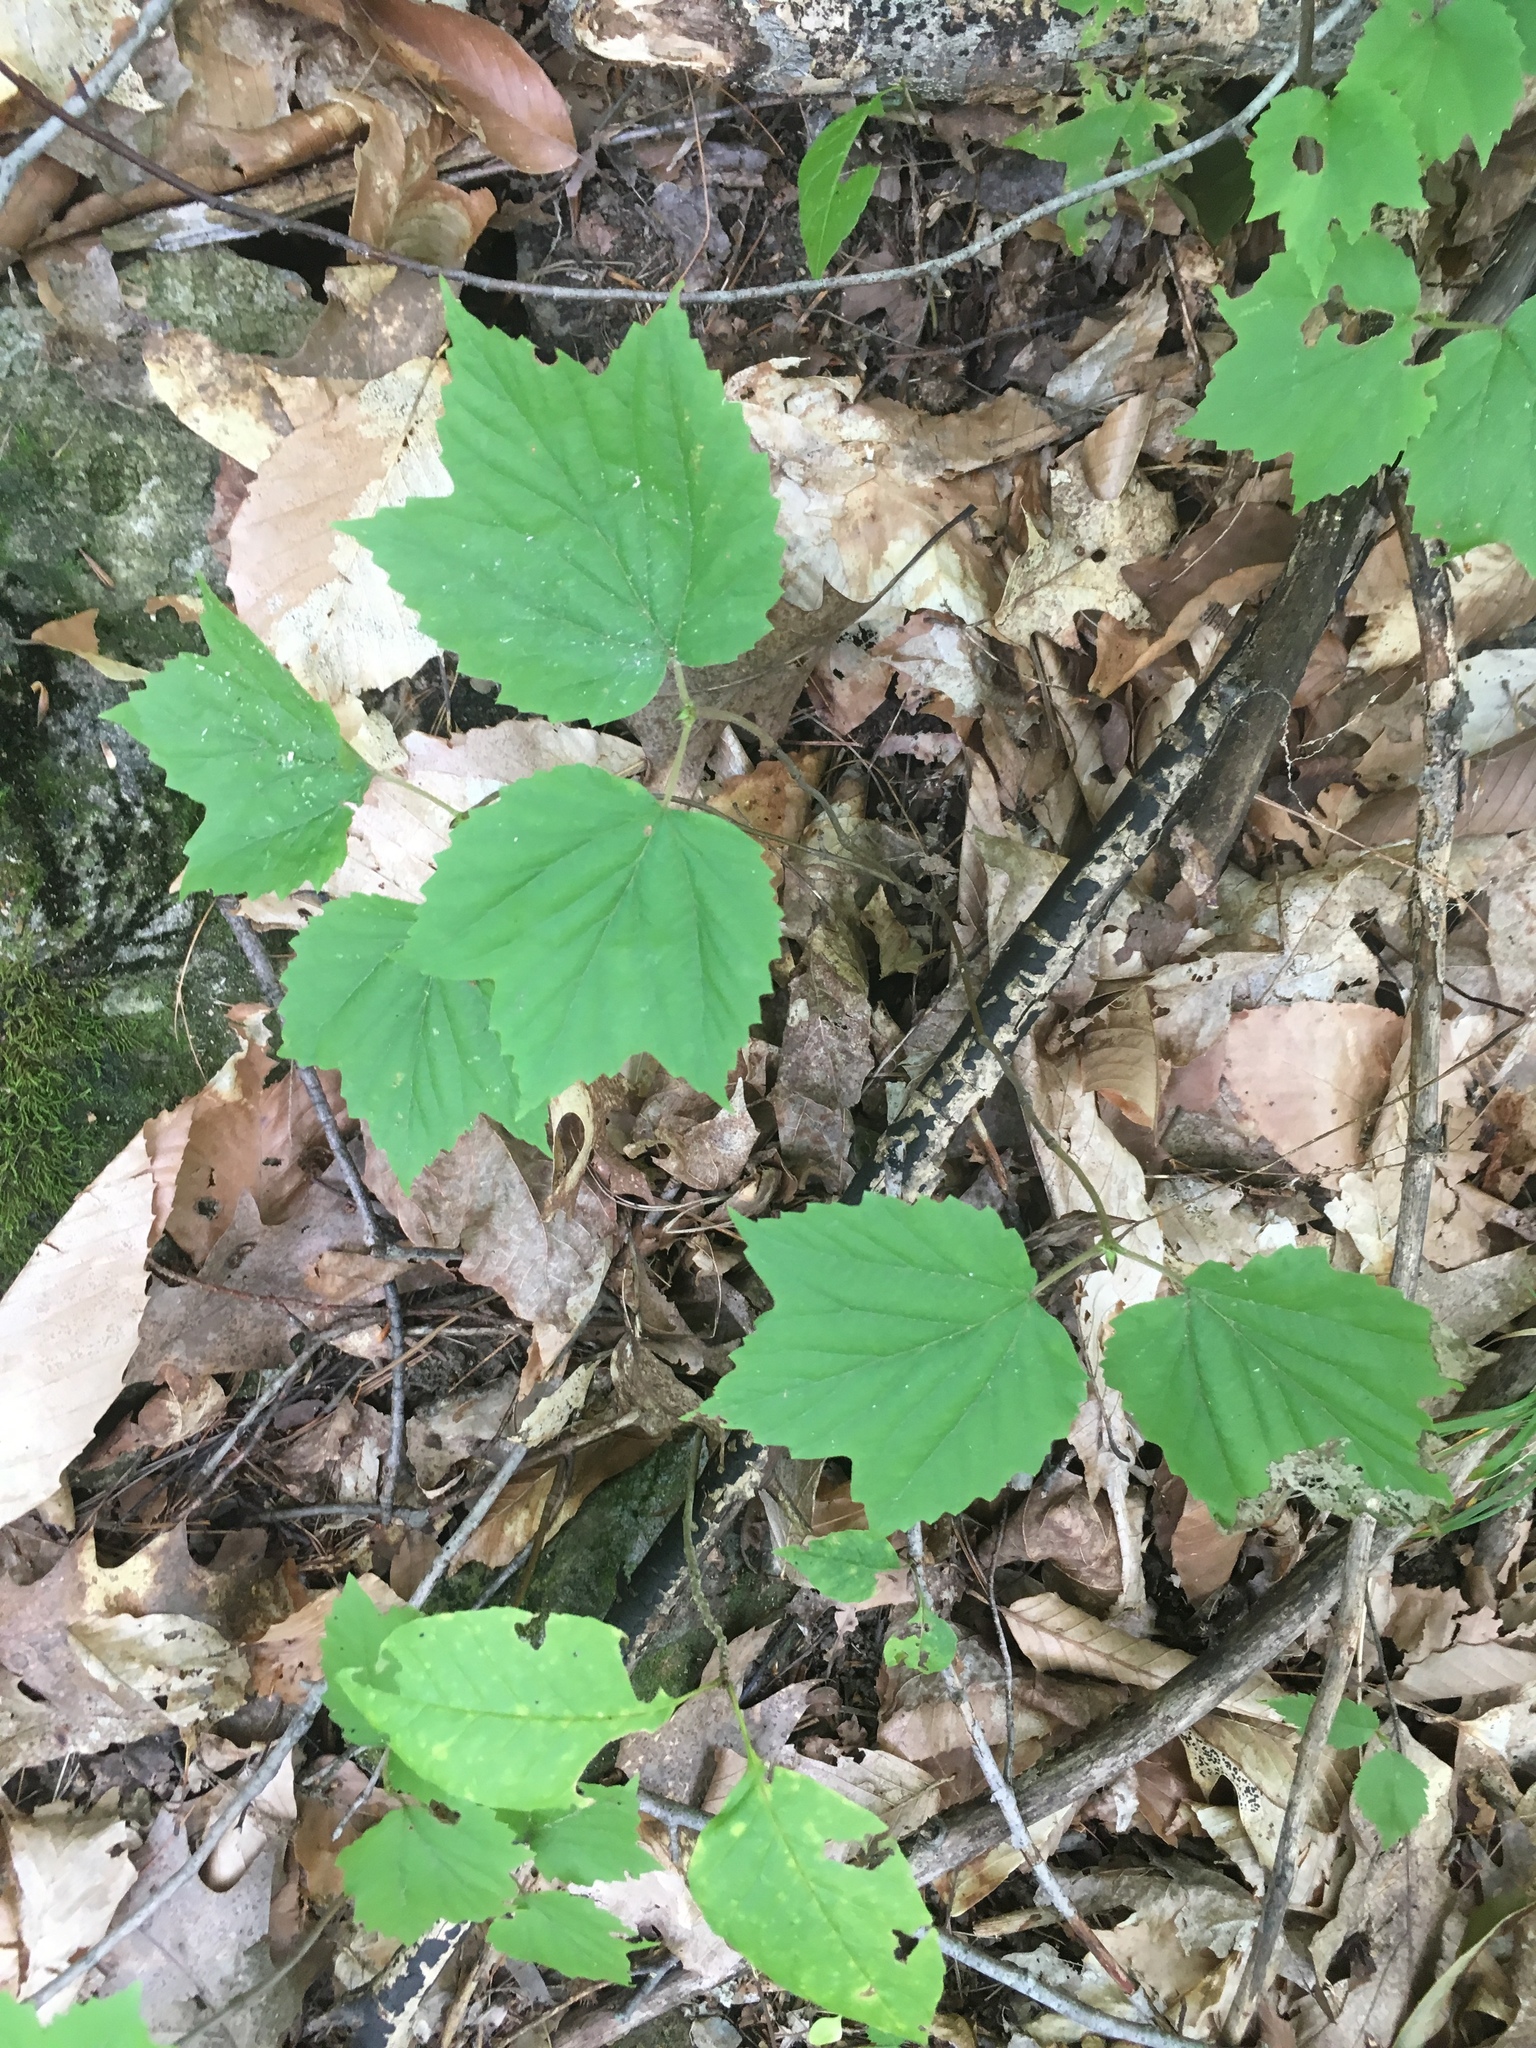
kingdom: Plantae
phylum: Tracheophyta
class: Magnoliopsida
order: Dipsacales
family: Viburnaceae
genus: Viburnum
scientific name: Viburnum acerifolium
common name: Dockmackie
